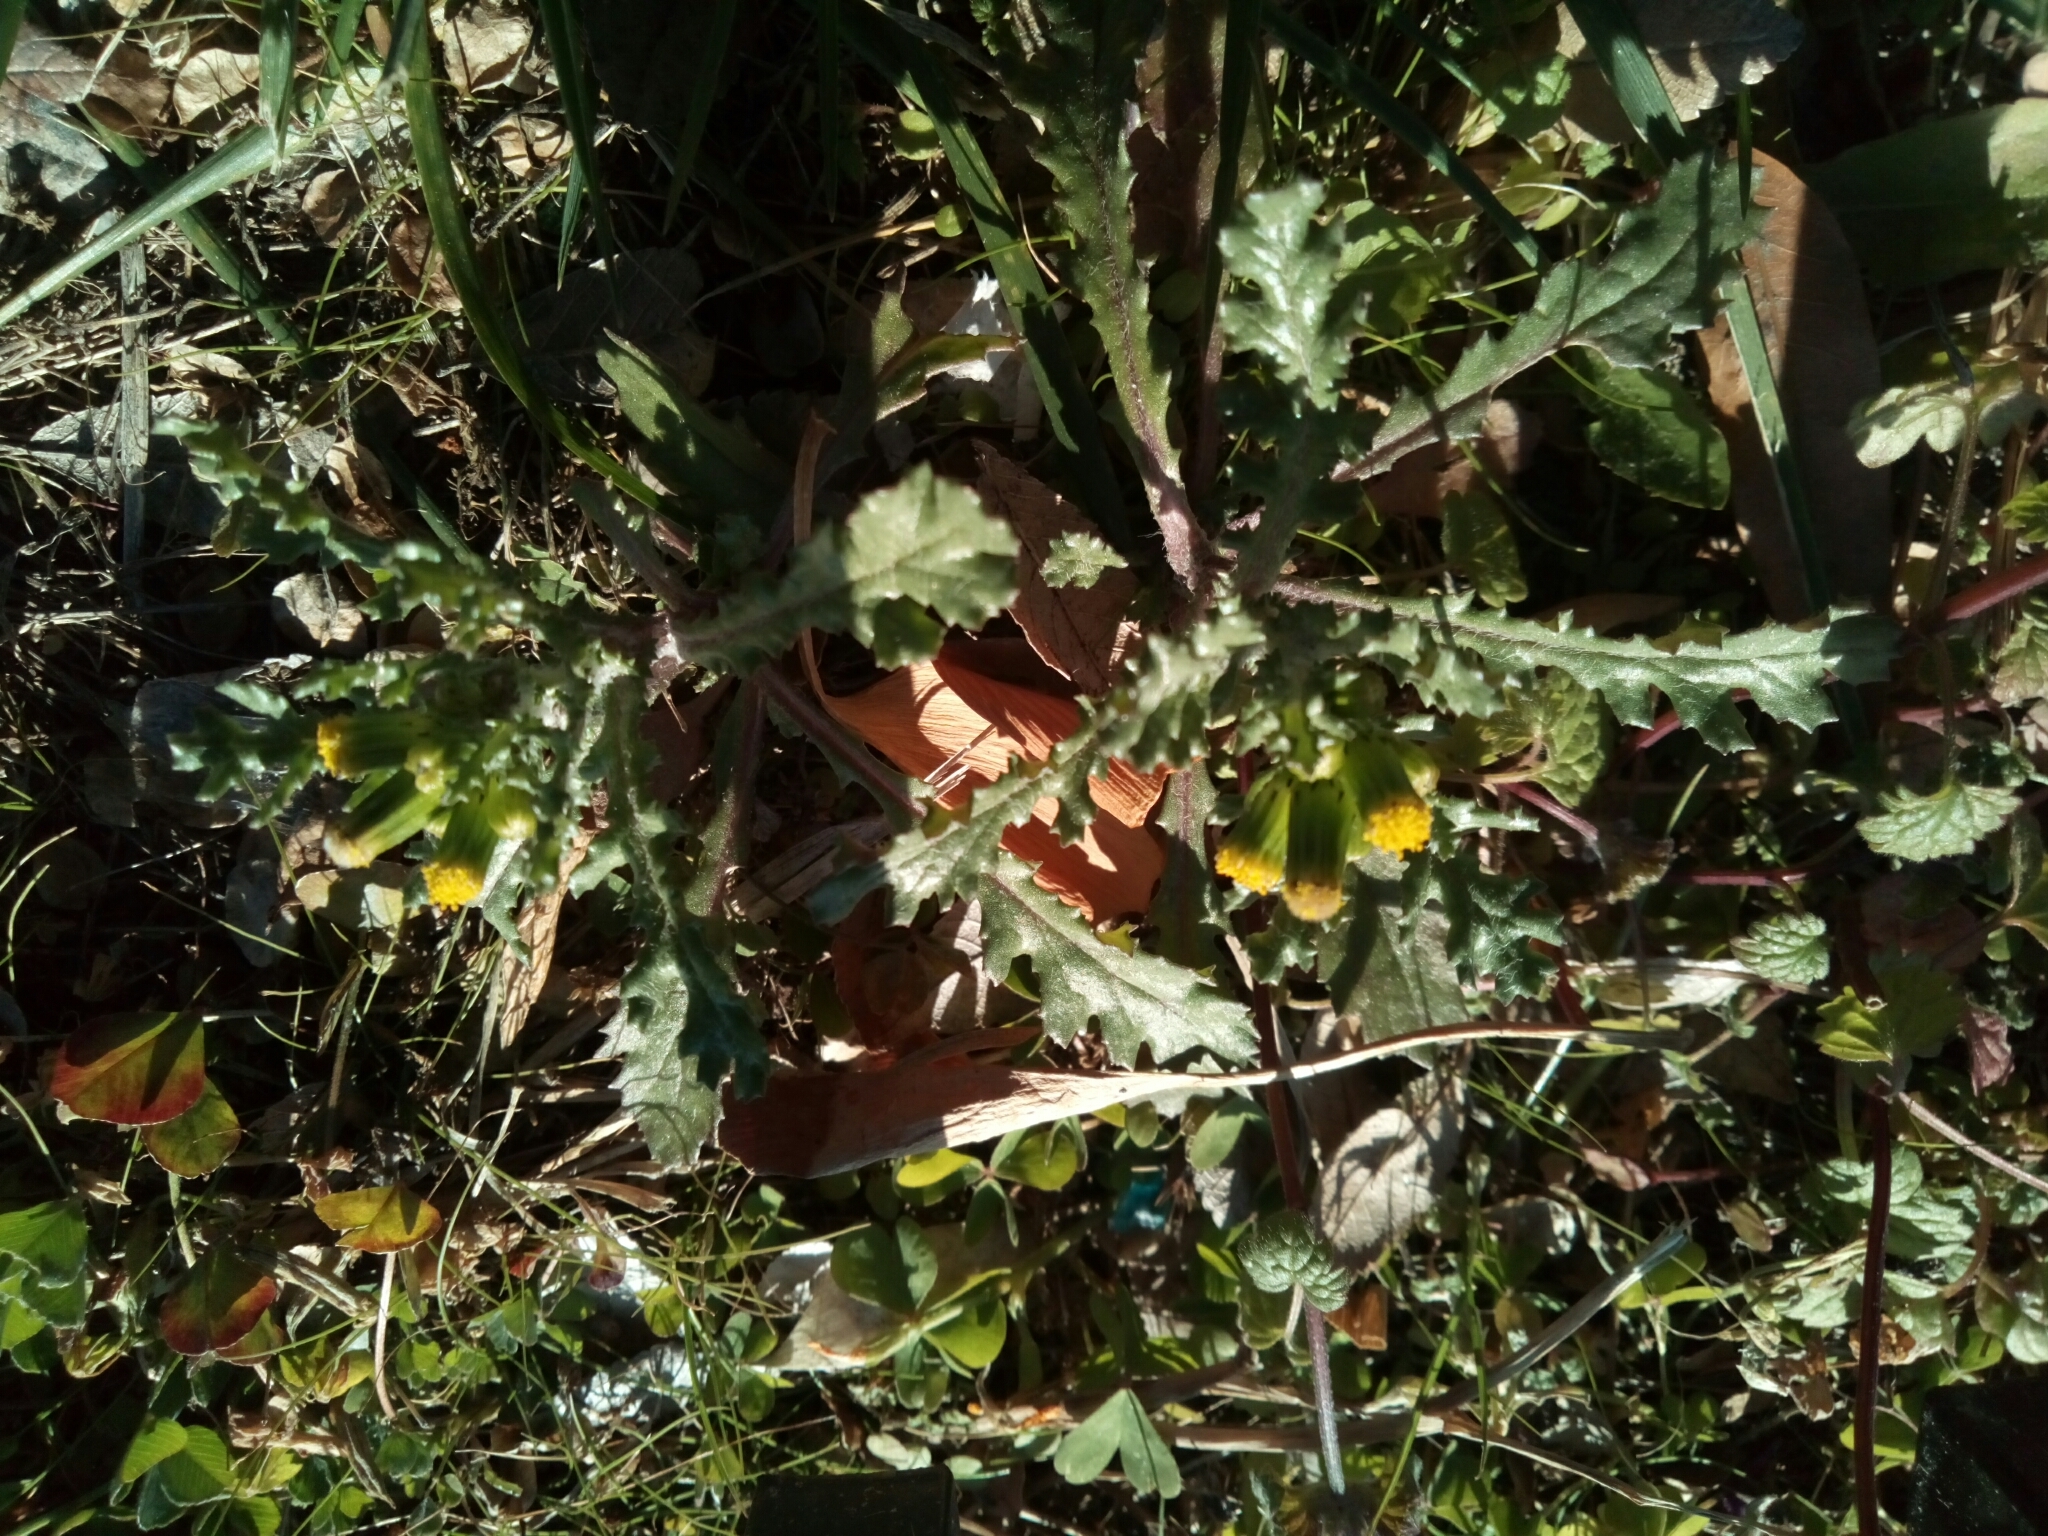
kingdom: Plantae
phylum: Tracheophyta
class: Magnoliopsida
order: Asterales
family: Asteraceae
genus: Senecio
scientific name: Senecio vulgaris
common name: Old-man-in-the-spring
